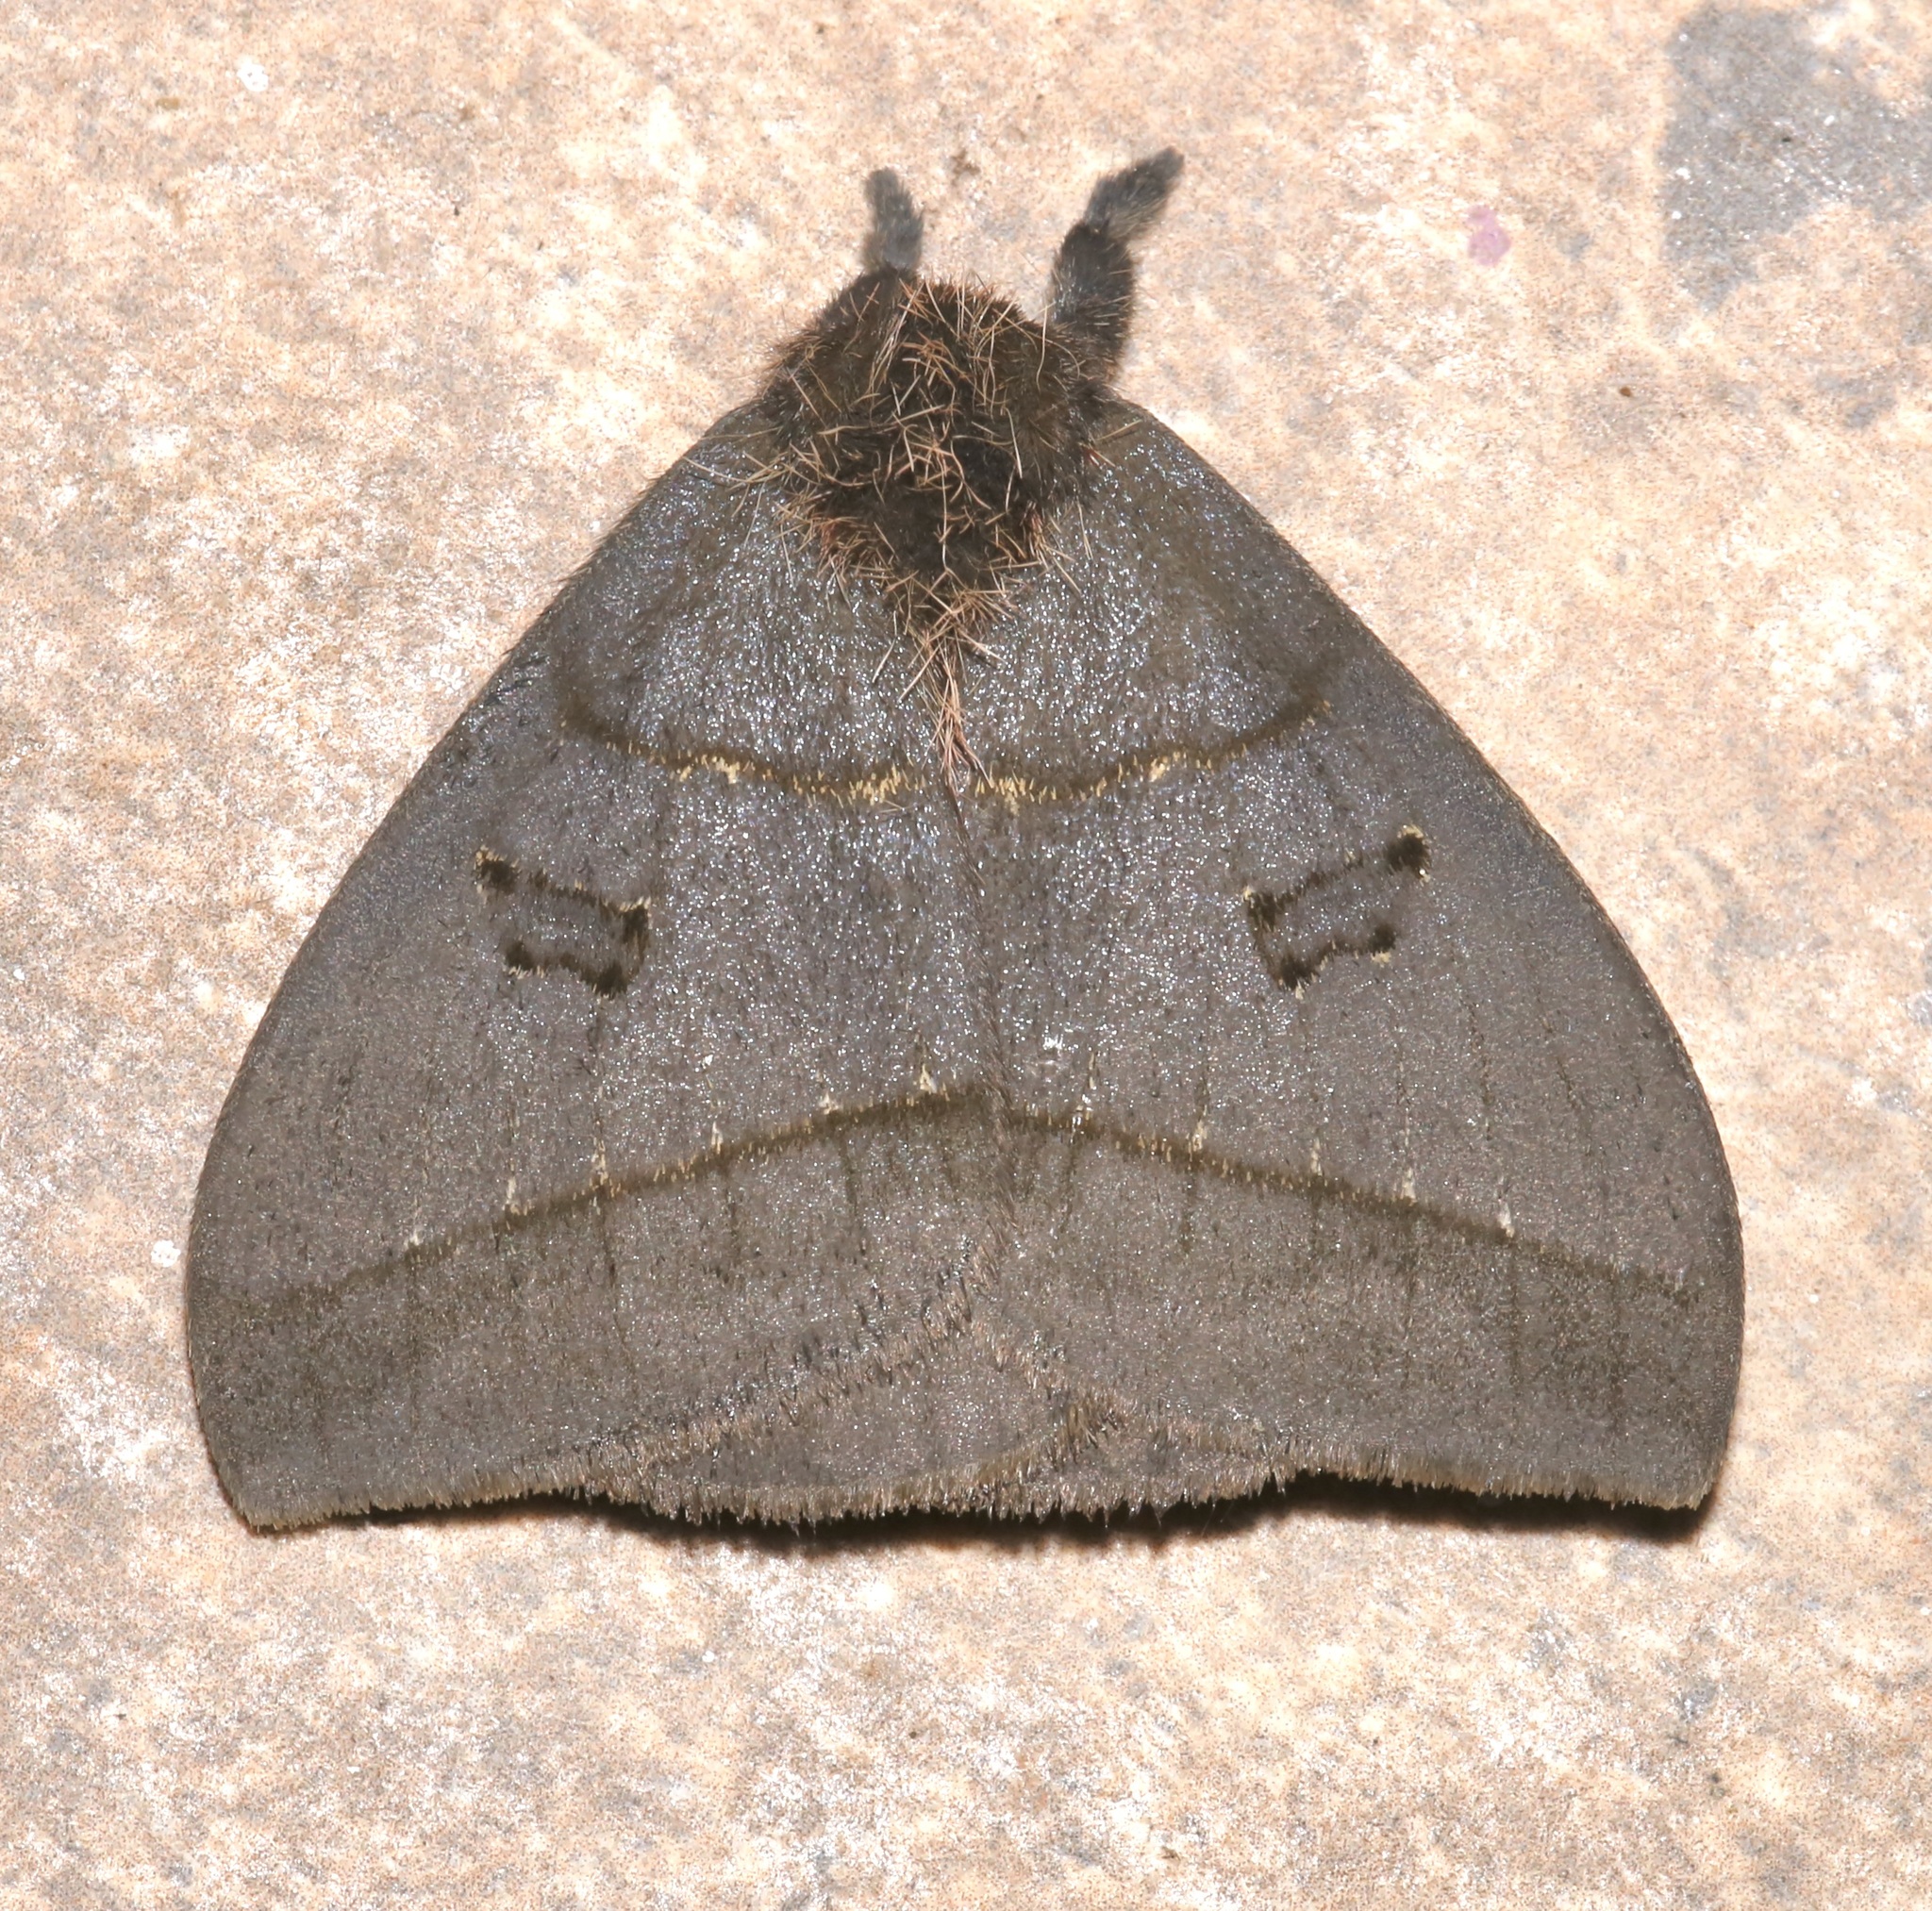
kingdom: Animalia
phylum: Arthropoda
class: Insecta
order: Lepidoptera
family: Saturniidae
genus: Automeris
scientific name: Automeris choco
